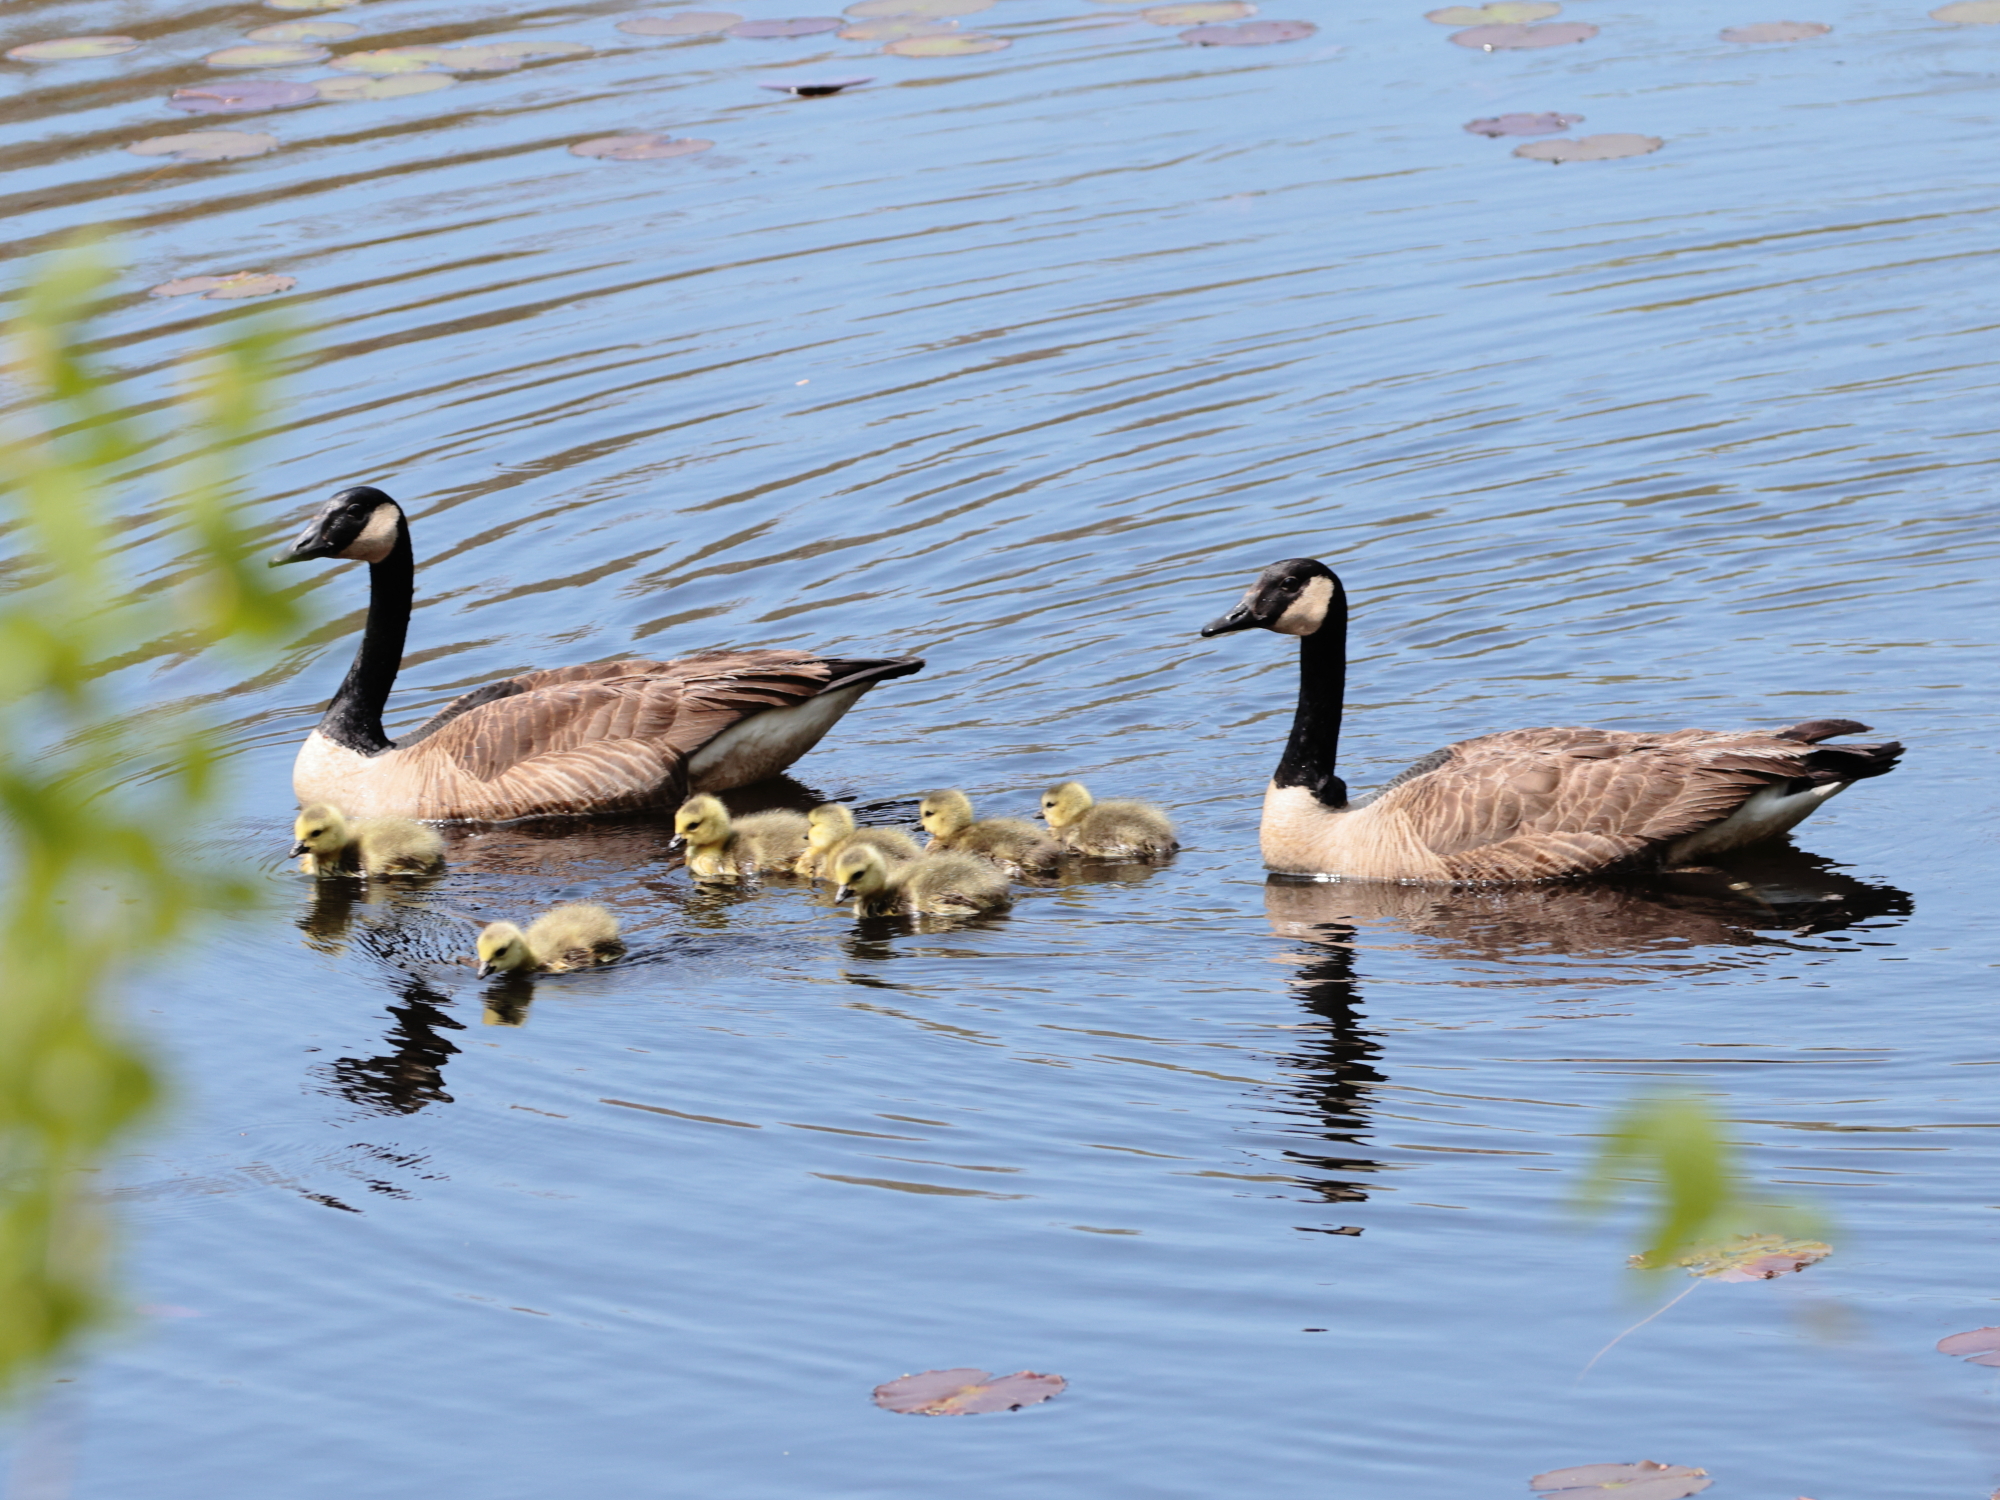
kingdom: Animalia
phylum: Chordata
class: Aves
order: Anseriformes
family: Anatidae
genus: Branta
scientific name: Branta canadensis
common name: Canada goose
